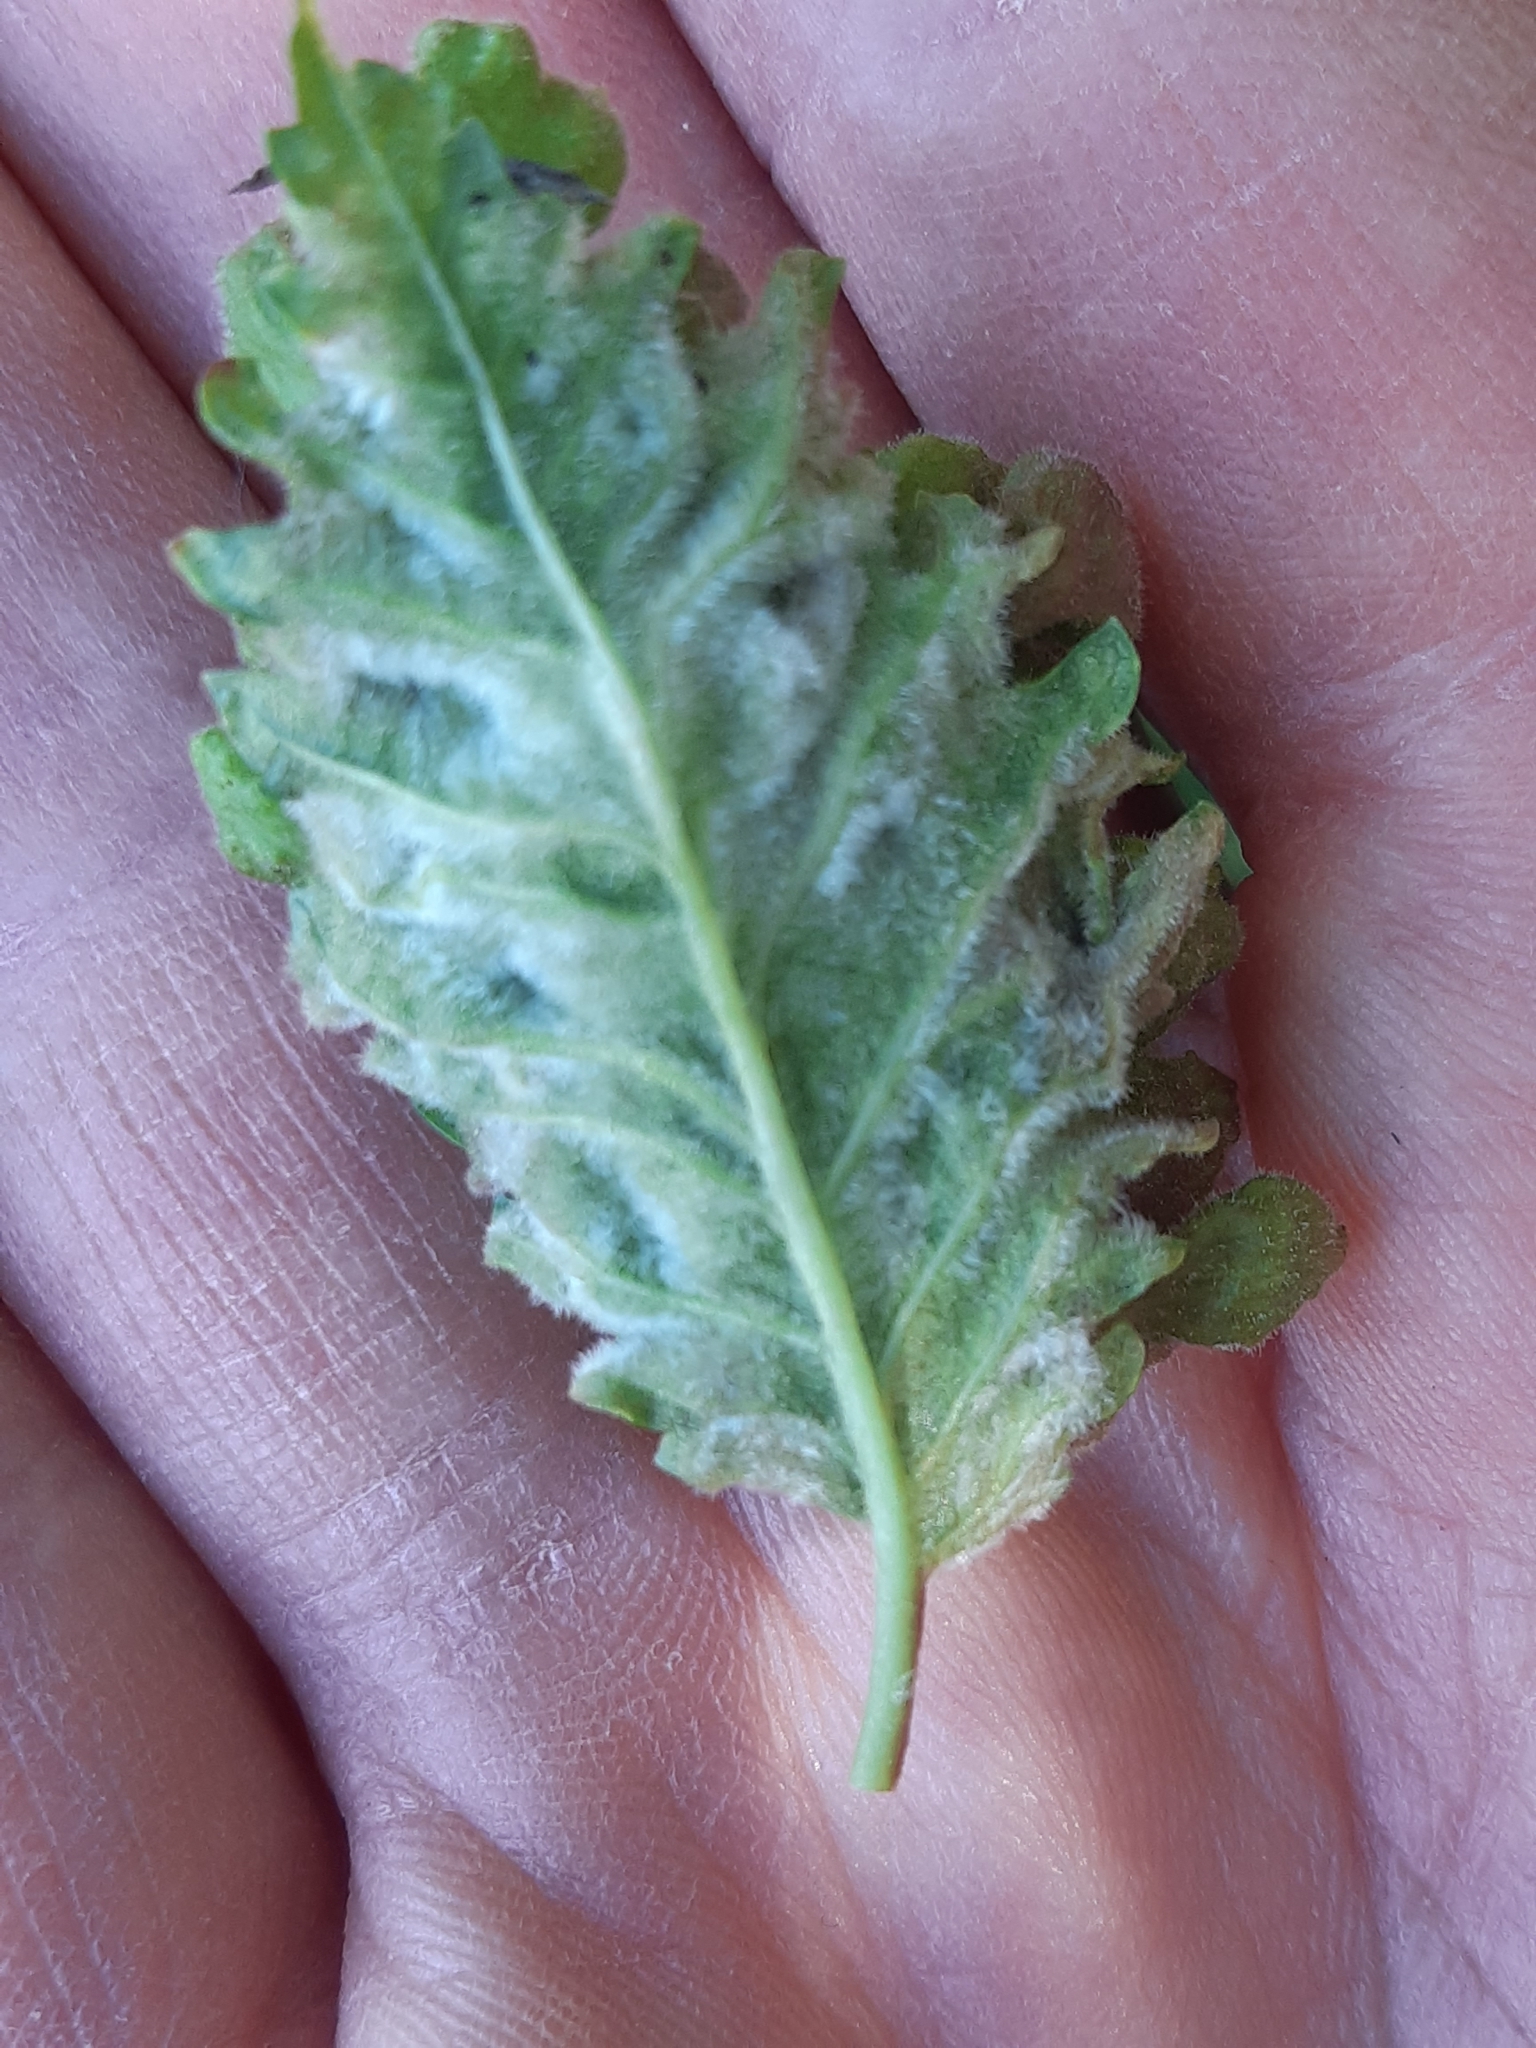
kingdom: Animalia
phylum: Arthropoda
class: Insecta
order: Hemiptera
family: Aphididae
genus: Tetraneura
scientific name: Tetraneura nigriabdominalis
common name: Aphid
